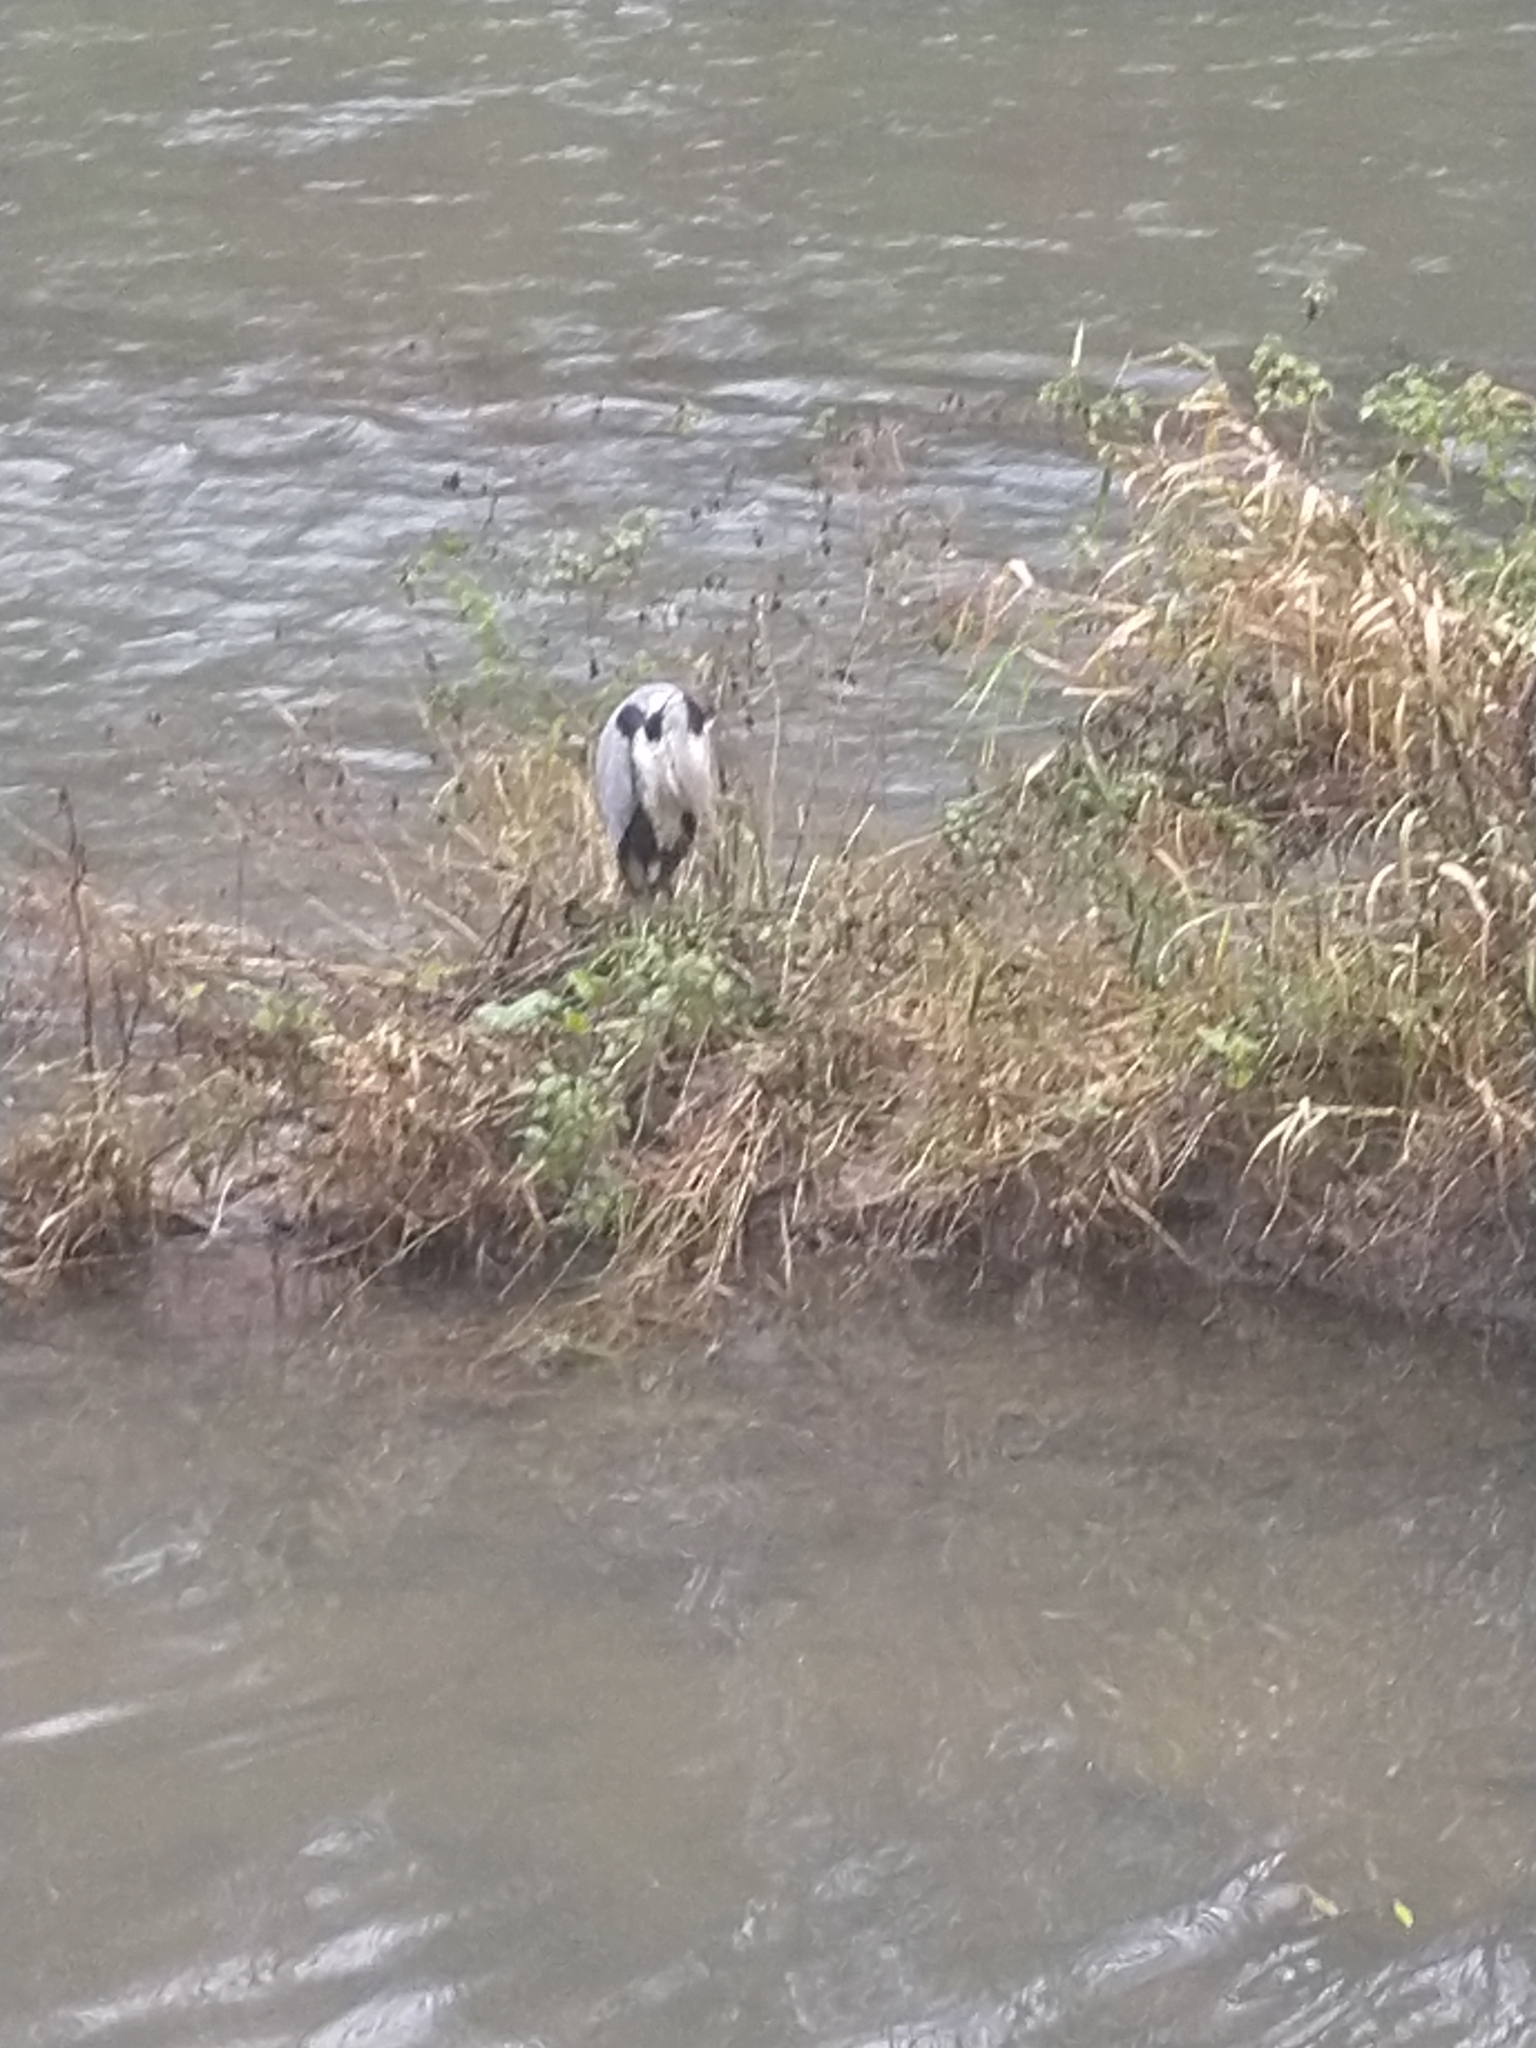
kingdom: Animalia
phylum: Chordata
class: Aves
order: Pelecaniformes
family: Ardeidae
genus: Ardea
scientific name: Ardea cinerea
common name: Grey heron
